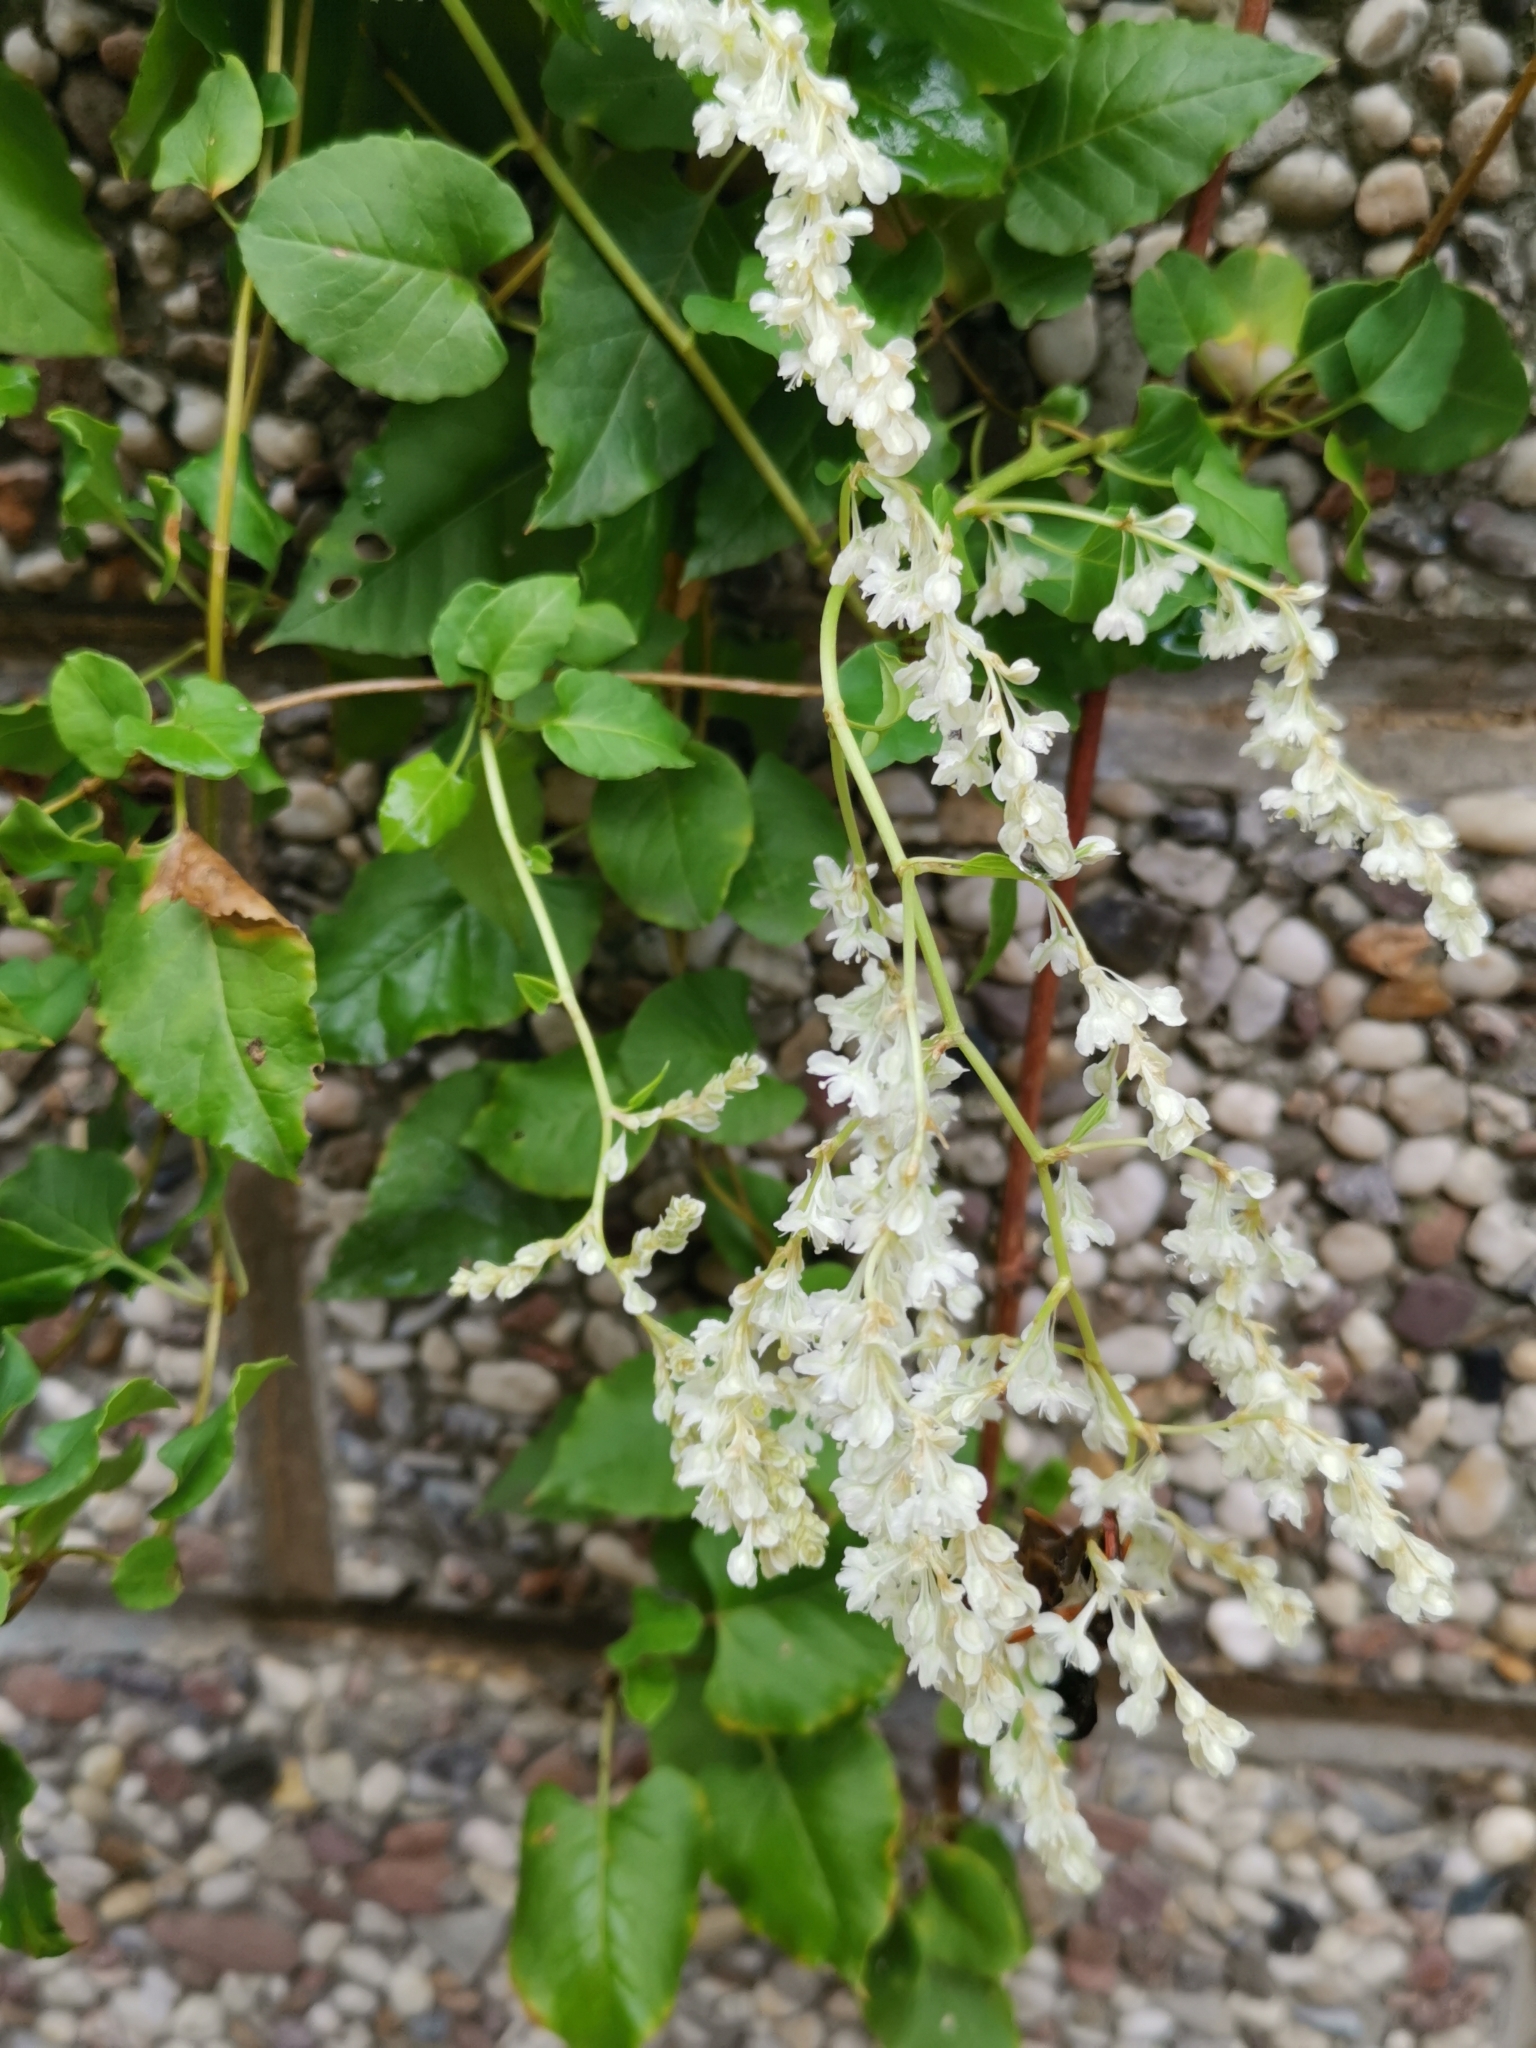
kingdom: Plantae
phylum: Tracheophyta
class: Magnoliopsida
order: Caryophyllales
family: Polygonaceae
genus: Fallopia
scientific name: Fallopia baldschuanica
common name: Russian-vine
